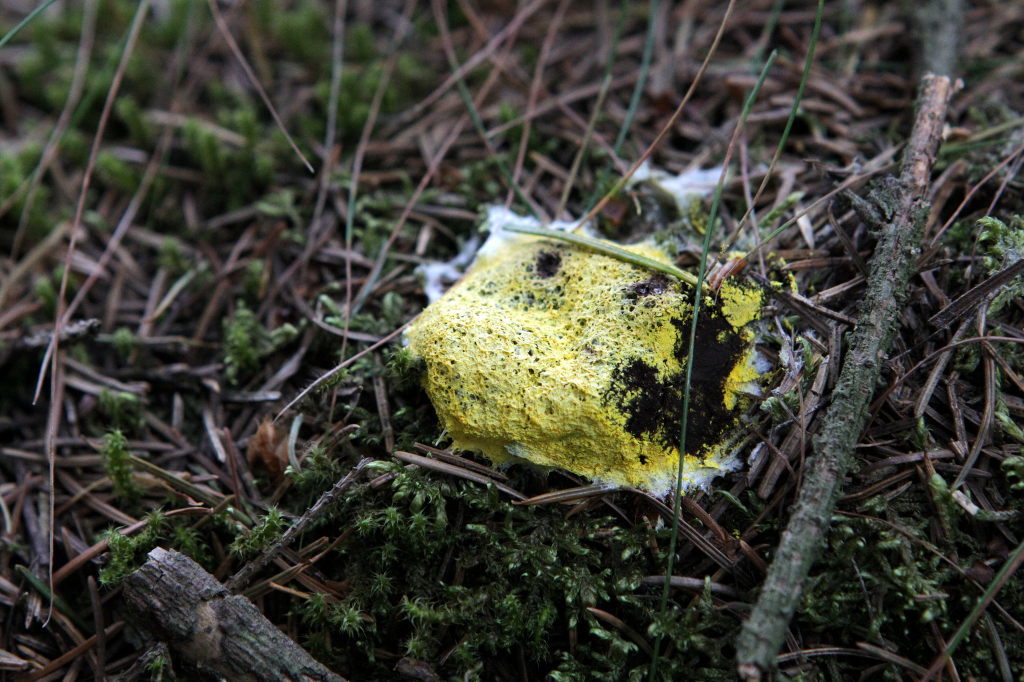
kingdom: Protozoa
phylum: Mycetozoa
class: Myxomycetes
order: Physarales
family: Physaraceae
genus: Fuligo
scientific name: Fuligo septica
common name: Dog vomit slime mold
